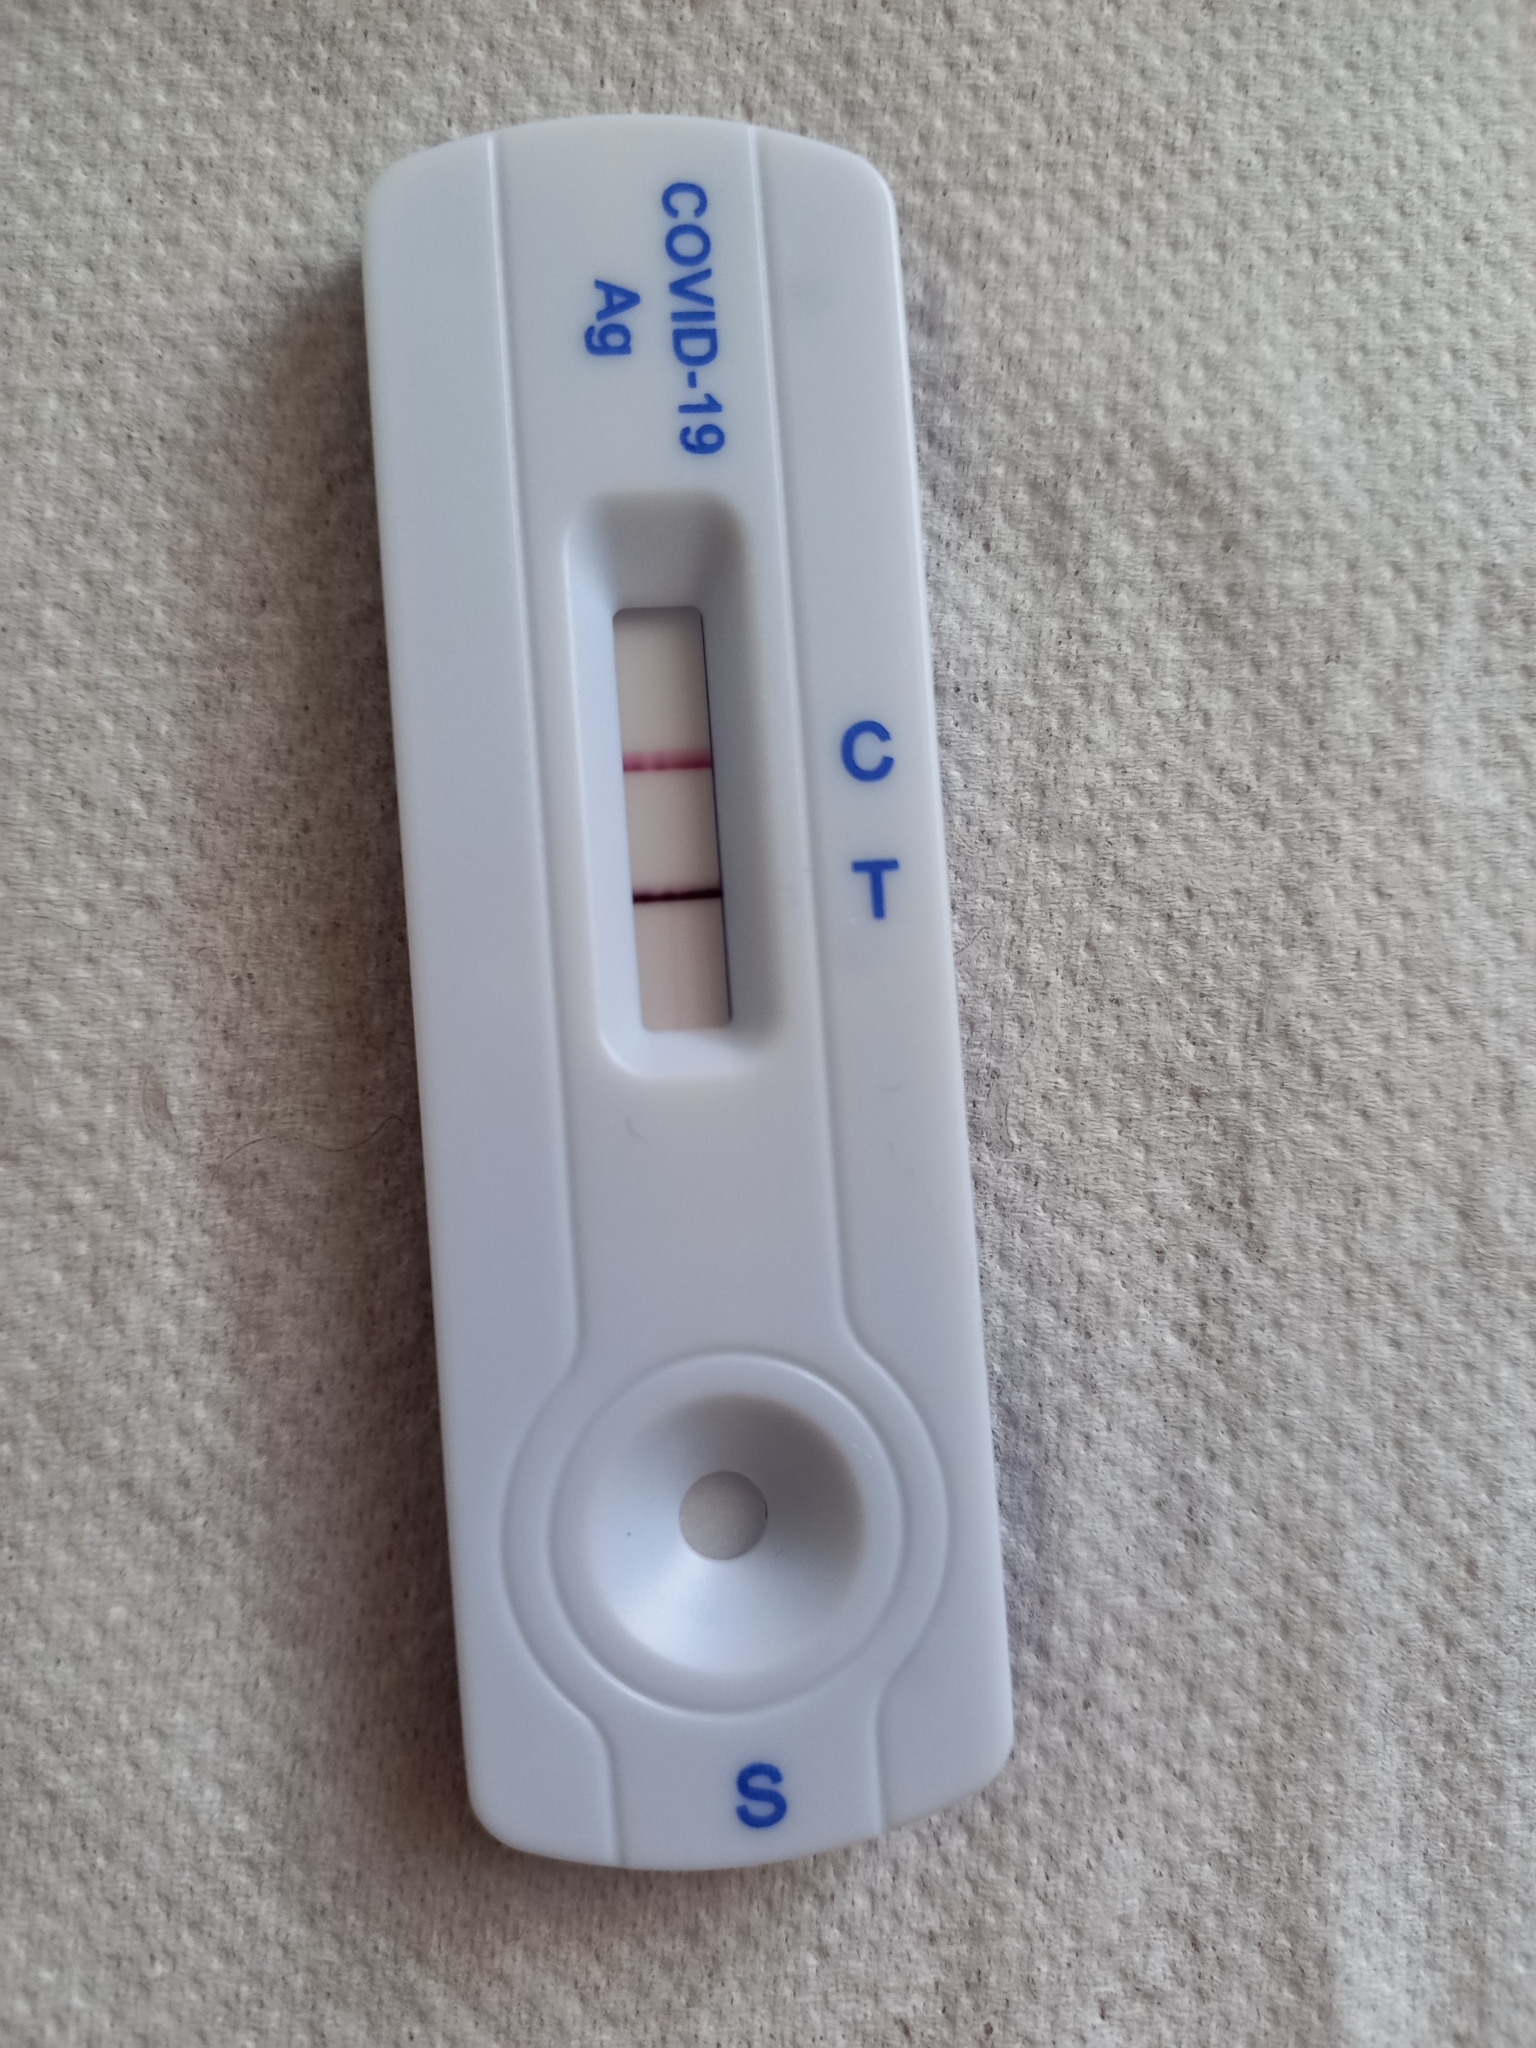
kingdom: Viruses
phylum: Pisuviricota
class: Pisoniviricetes
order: Nidovirales
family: Coronaviridae
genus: Betacoronavirus
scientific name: Betacoronavirus
